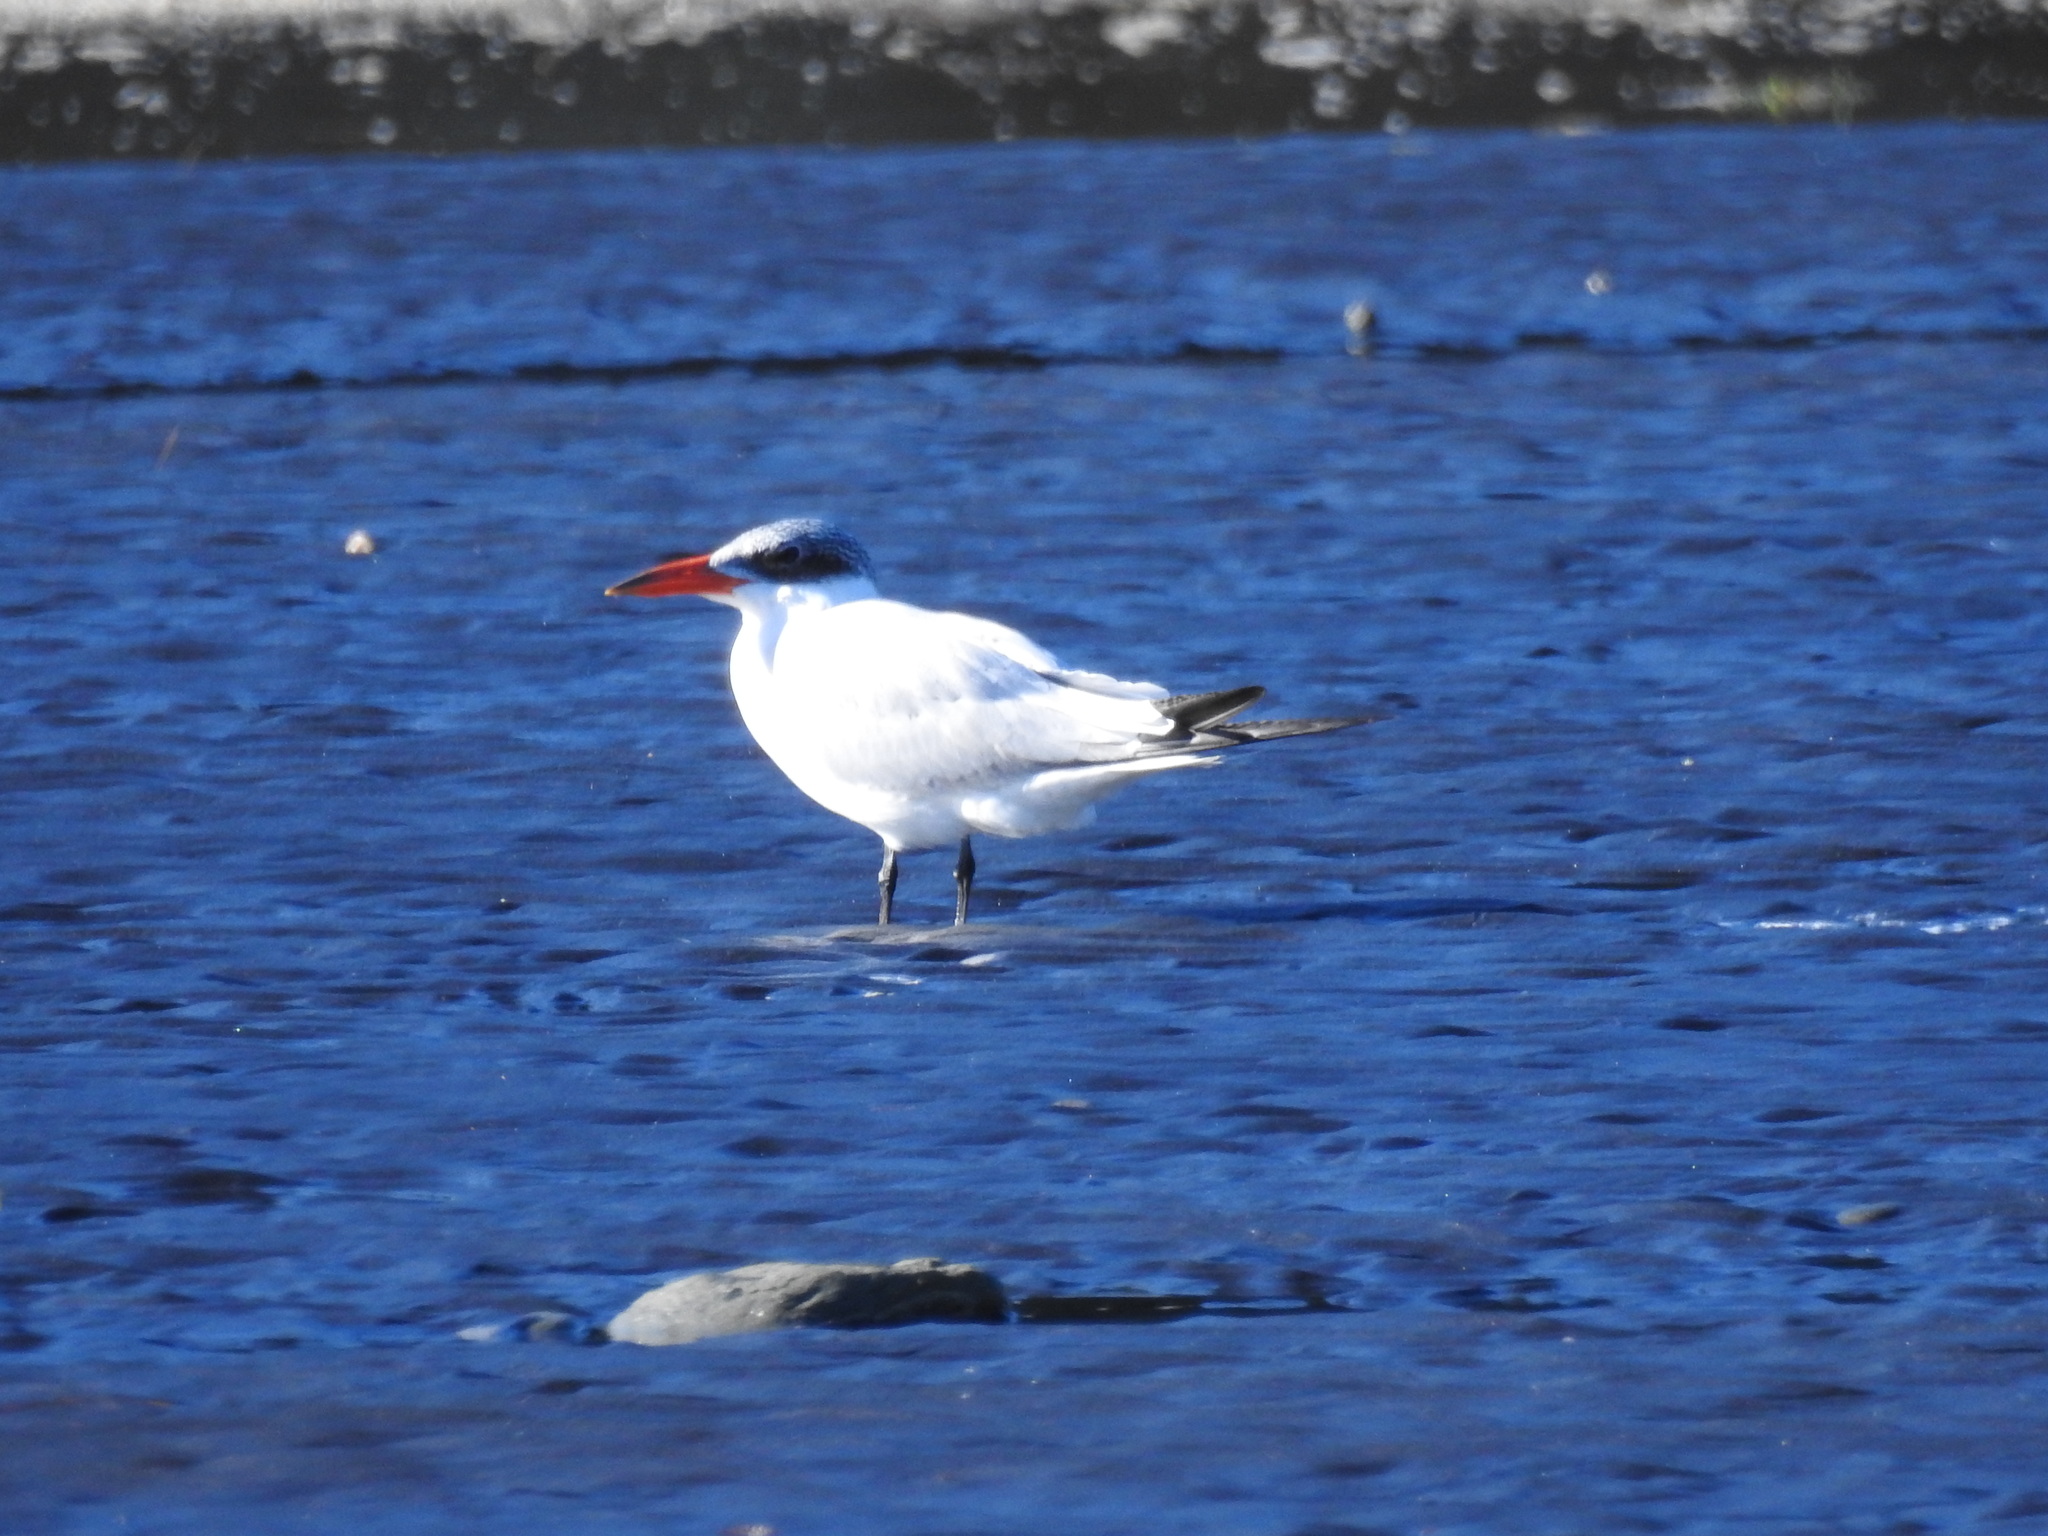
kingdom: Animalia
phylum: Chordata
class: Aves
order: Charadriiformes
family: Laridae
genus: Hydroprogne
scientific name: Hydroprogne caspia
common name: Caspian tern
